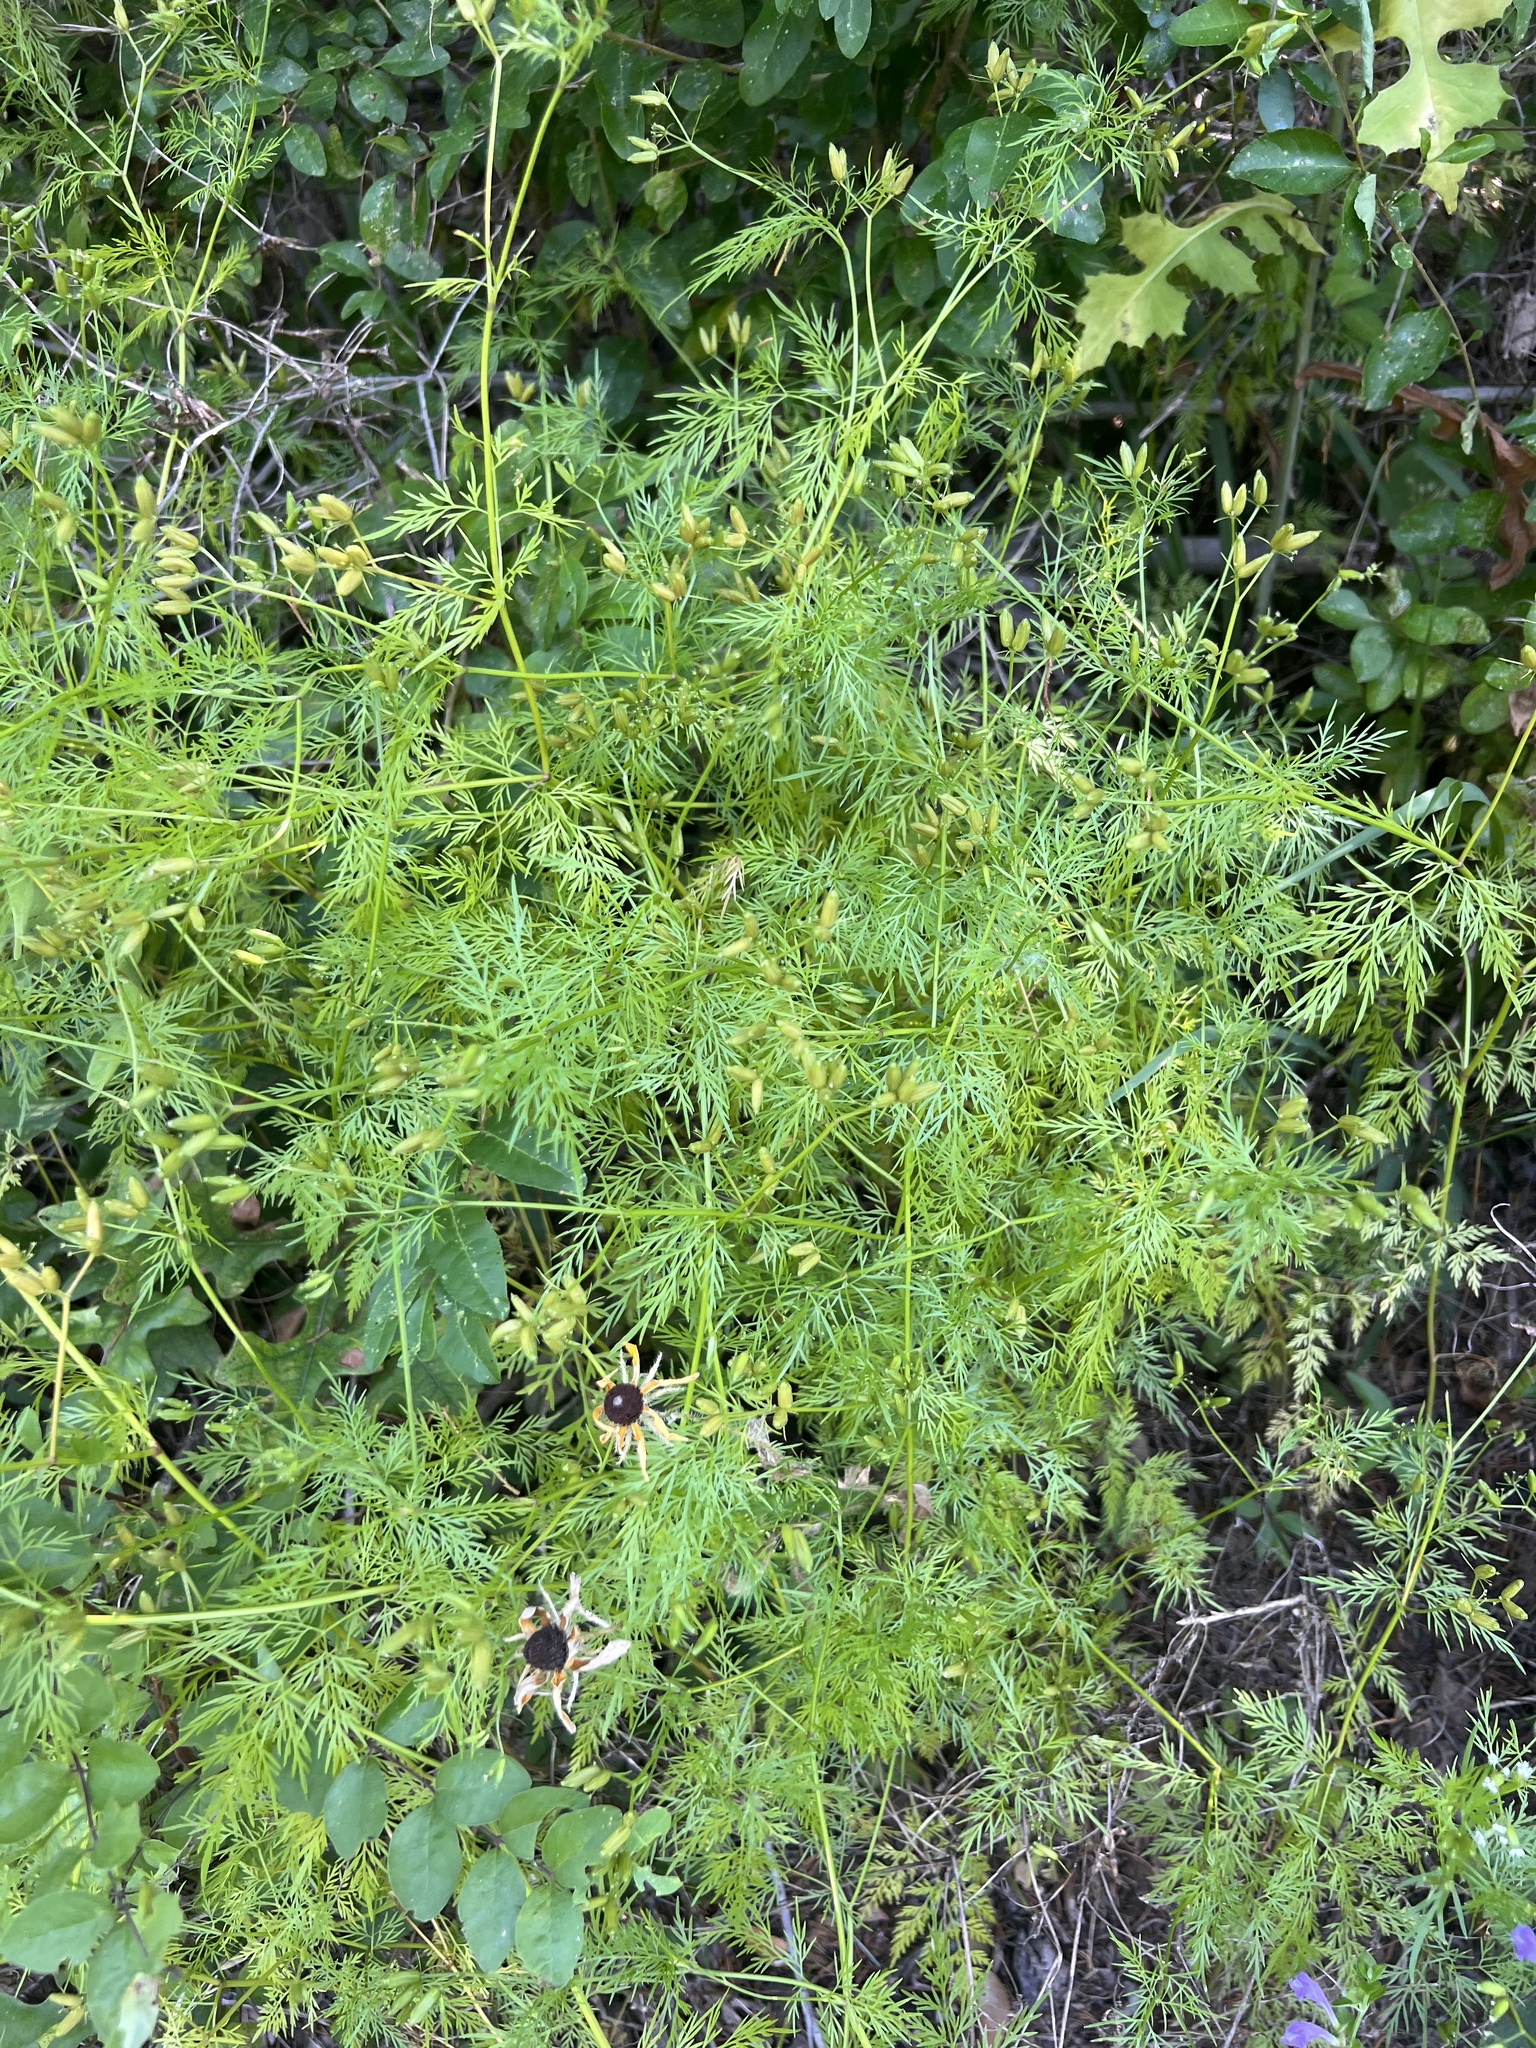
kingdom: Plantae
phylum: Tracheophyta
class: Magnoliopsida
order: Apiales
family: Apiaceae
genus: Trepocarpus
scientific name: Trepocarpus aethusae
